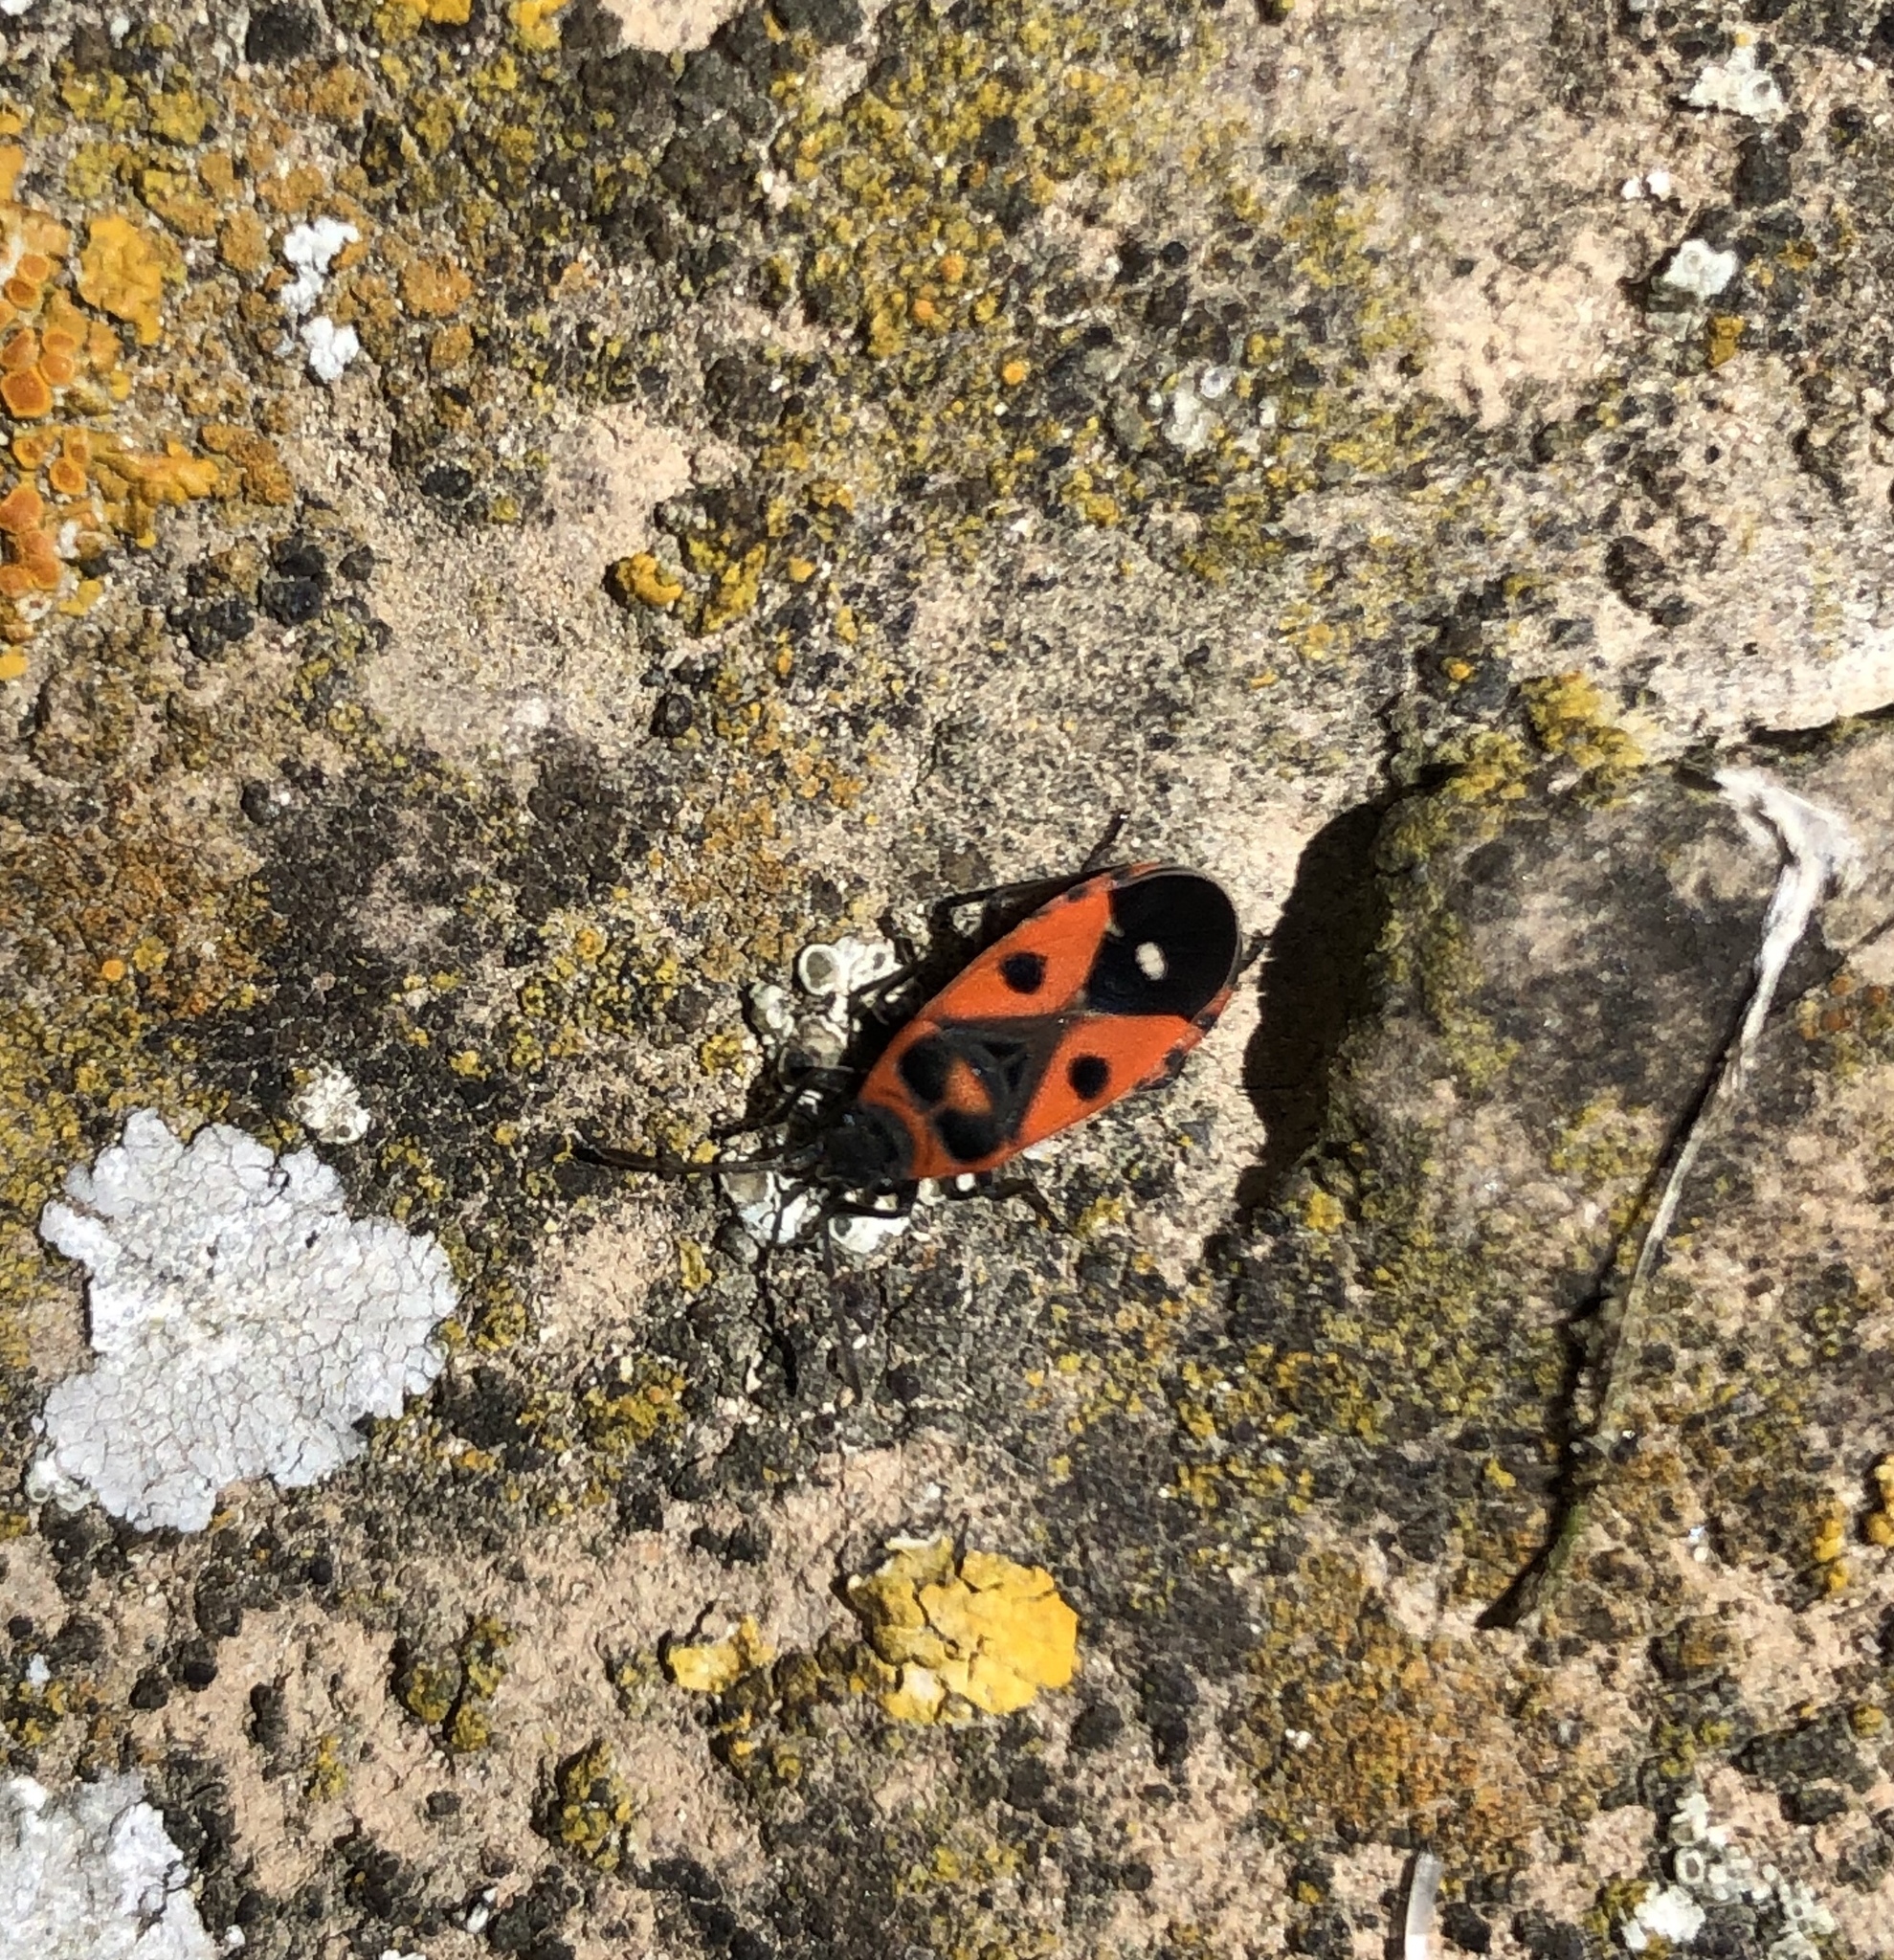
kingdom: Animalia
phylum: Arthropoda
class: Insecta
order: Hemiptera
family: Lygaeidae
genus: Melanocoryphus
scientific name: Melanocoryphus albomaculatus
